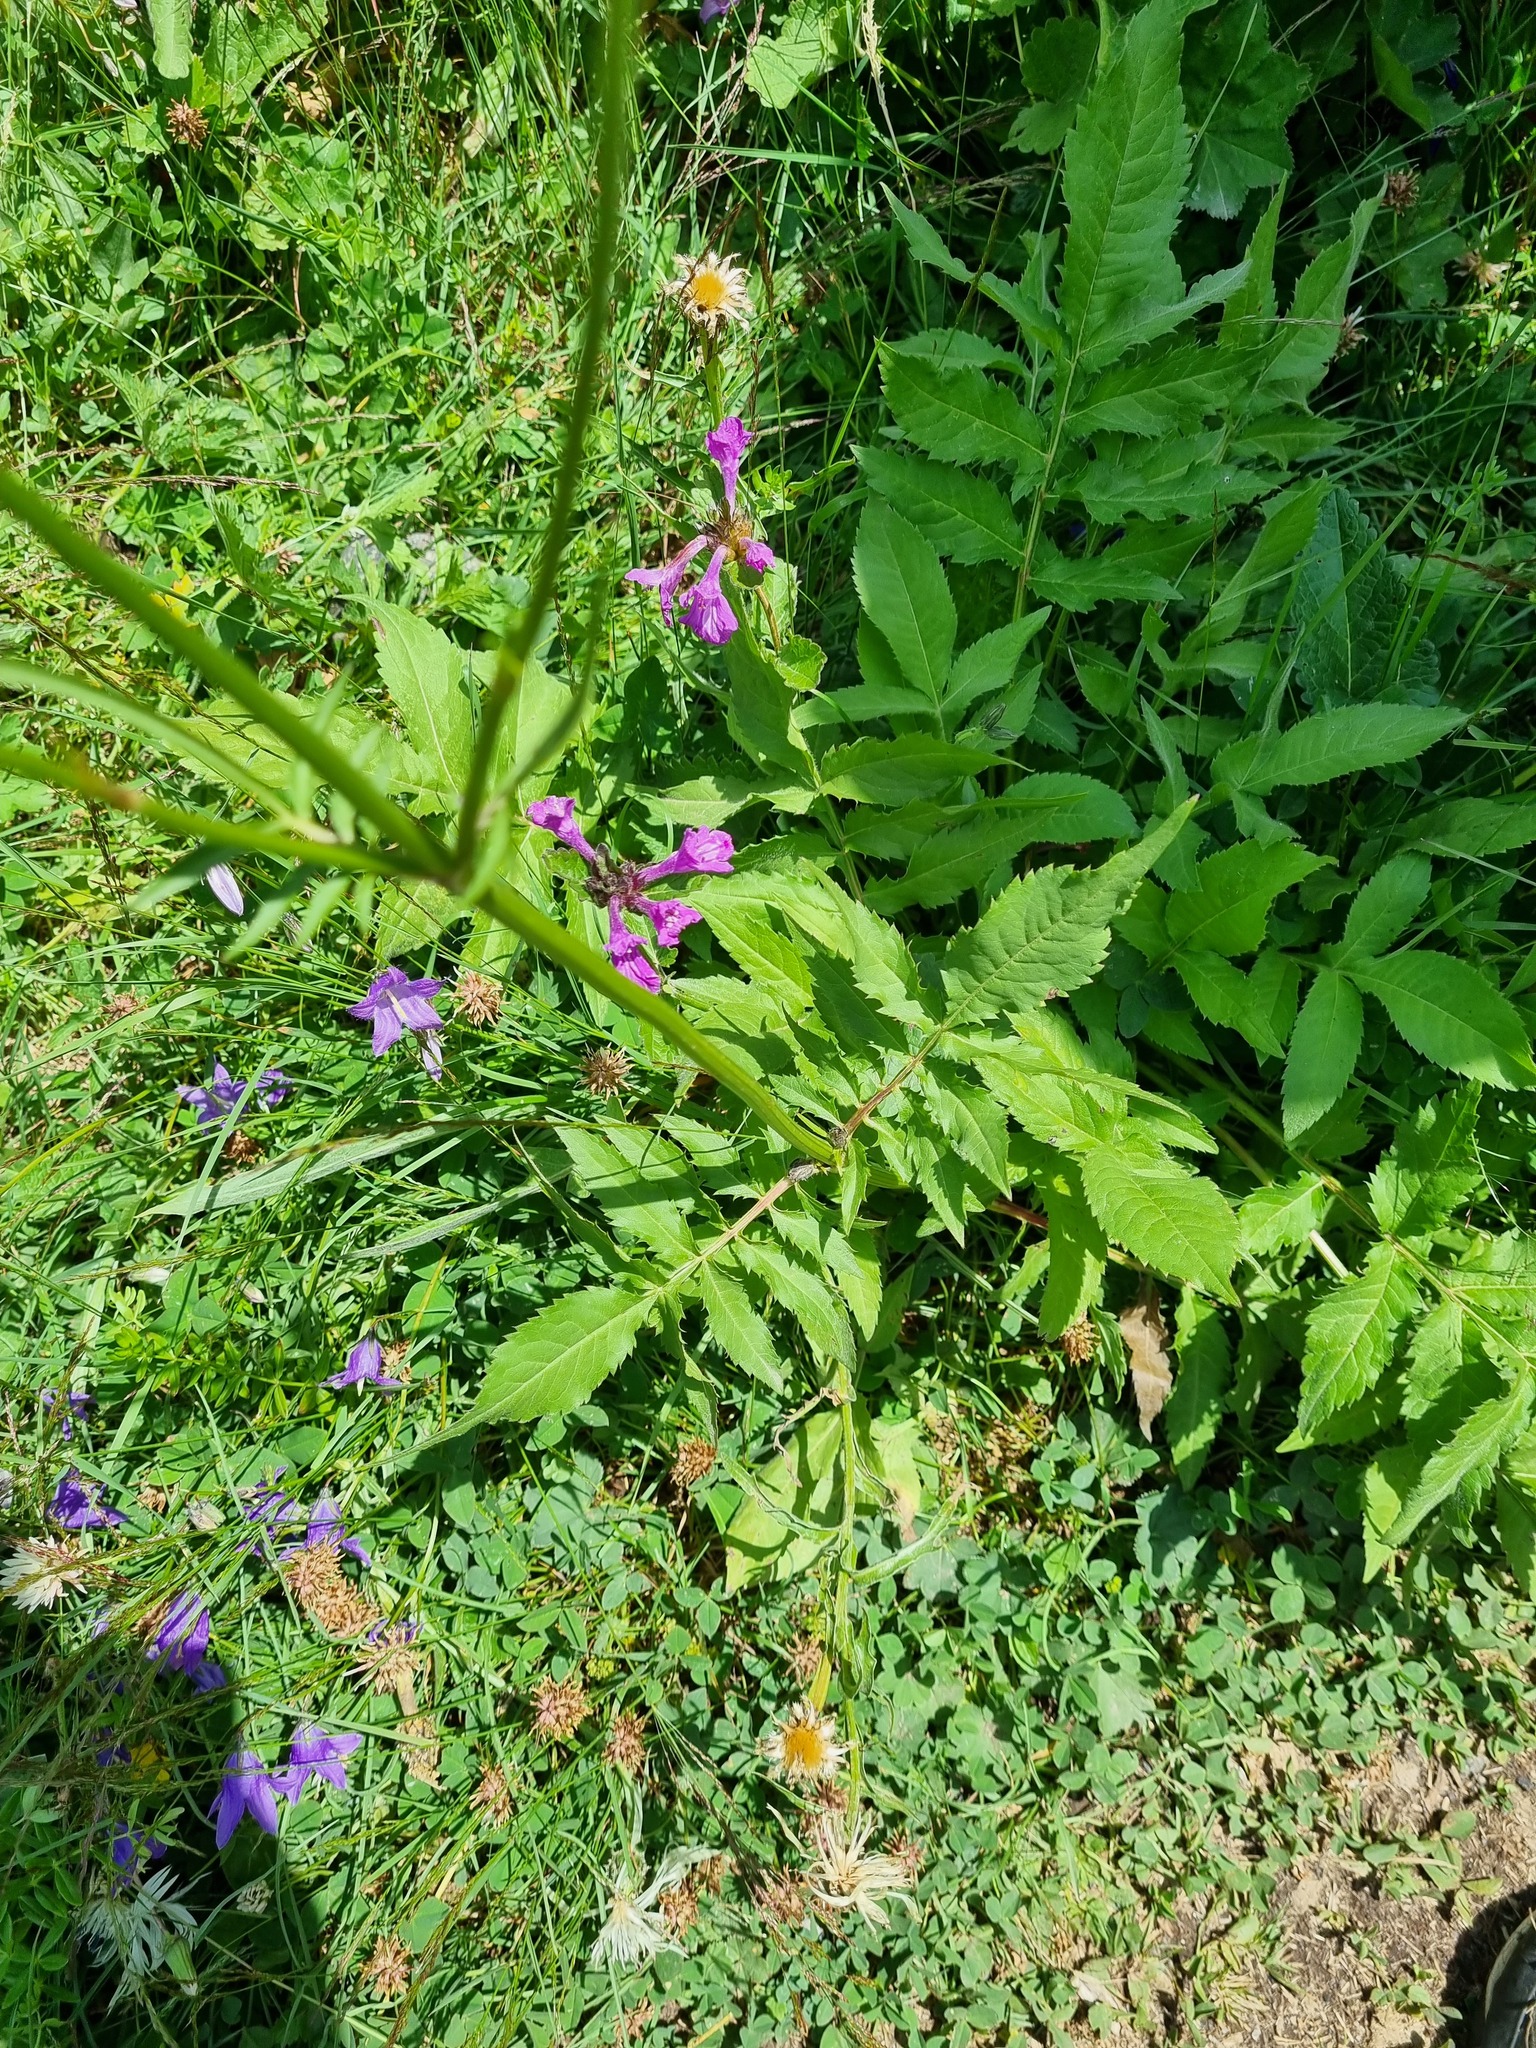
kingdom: Plantae
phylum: Tracheophyta
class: Magnoliopsida
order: Dipsacales
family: Caprifoliaceae
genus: Cephalaria
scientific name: Cephalaria gigantea
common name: Tatarian cephalaria
